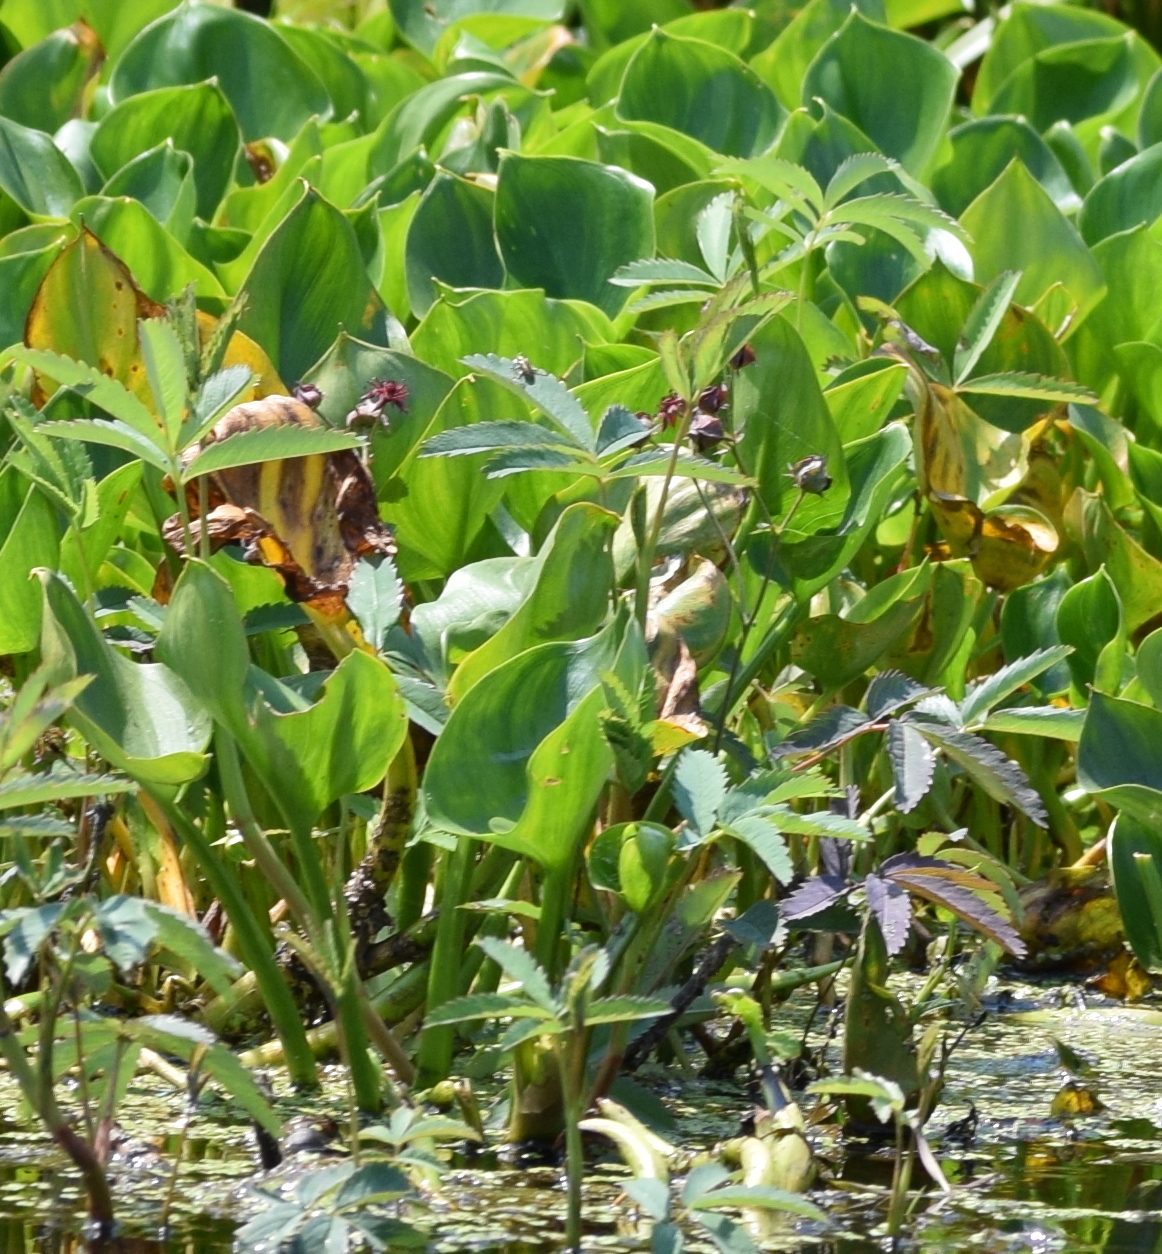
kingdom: Plantae
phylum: Tracheophyta
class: Magnoliopsida
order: Rosales
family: Rosaceae
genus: Comarum
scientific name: Comarum palustre
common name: Marsh cinquefoil
